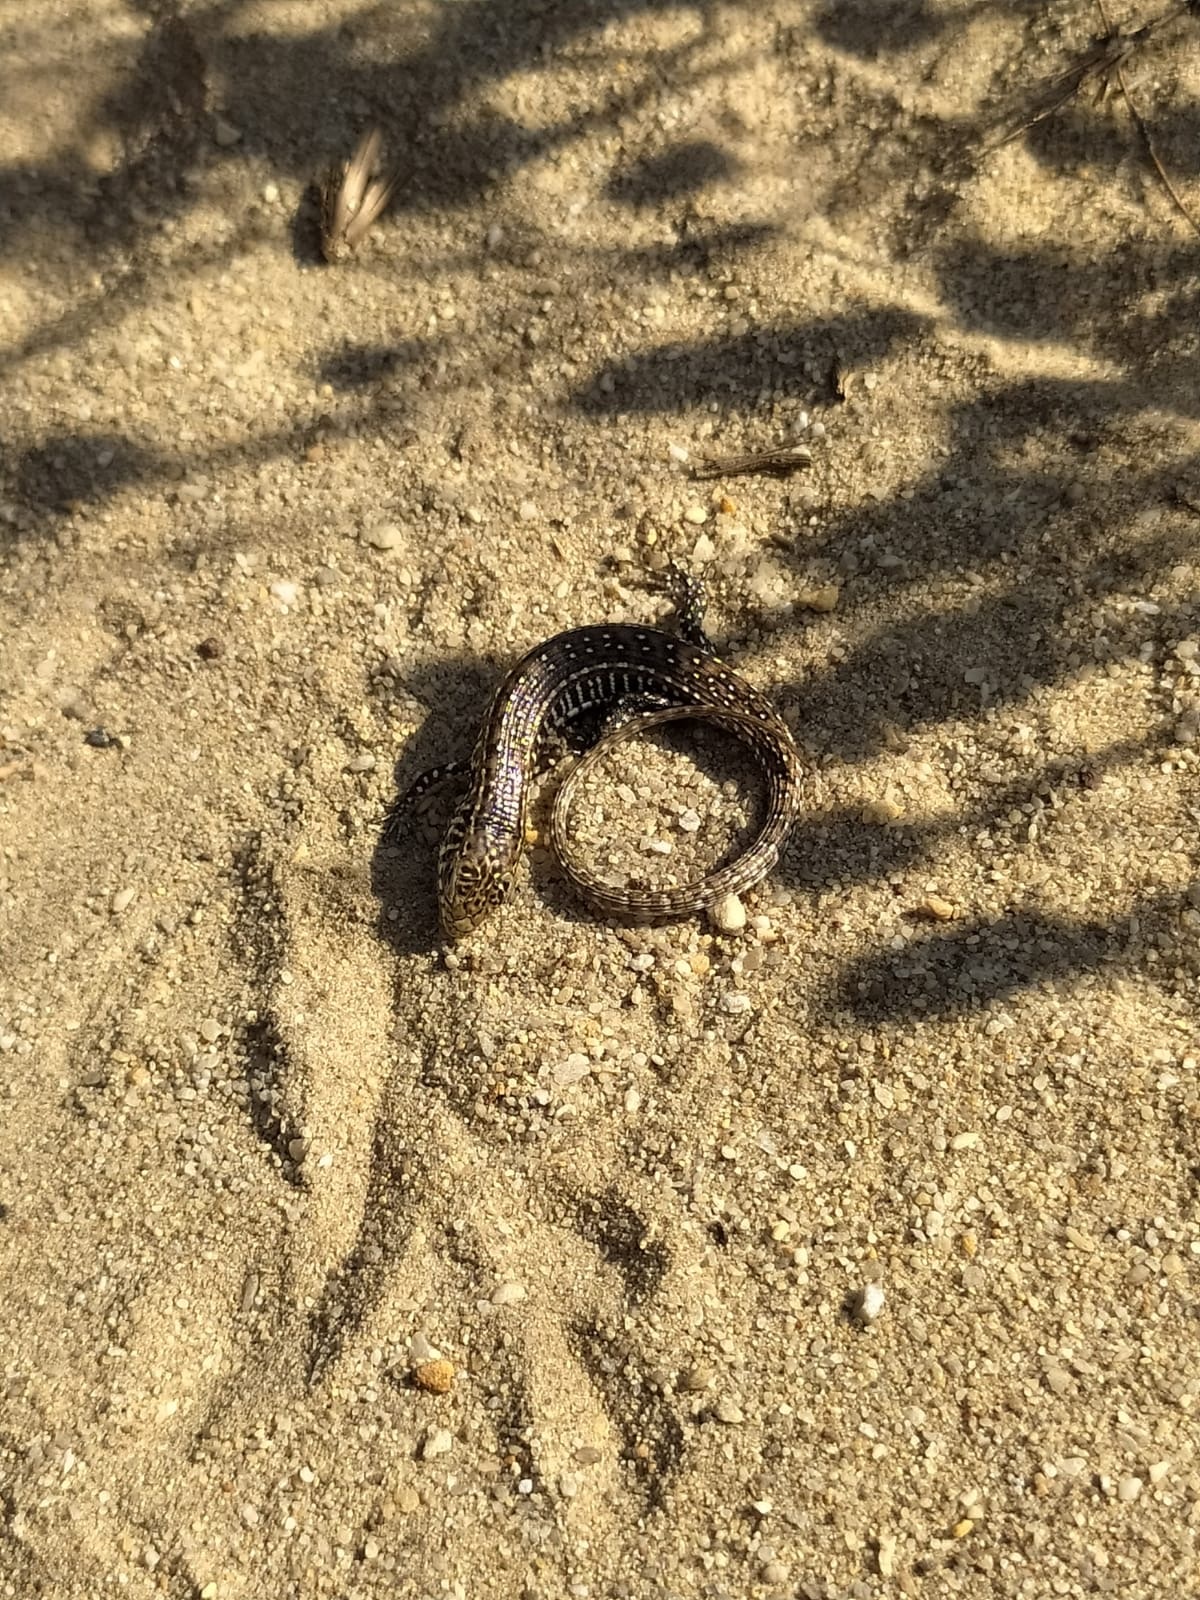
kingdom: Animalia
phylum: Chordata
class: Squamata
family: Gerrhosauridae
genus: Gerrhosaurus
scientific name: Gerrhosaurus flavigularis
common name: Yellow-throated plated lizard
